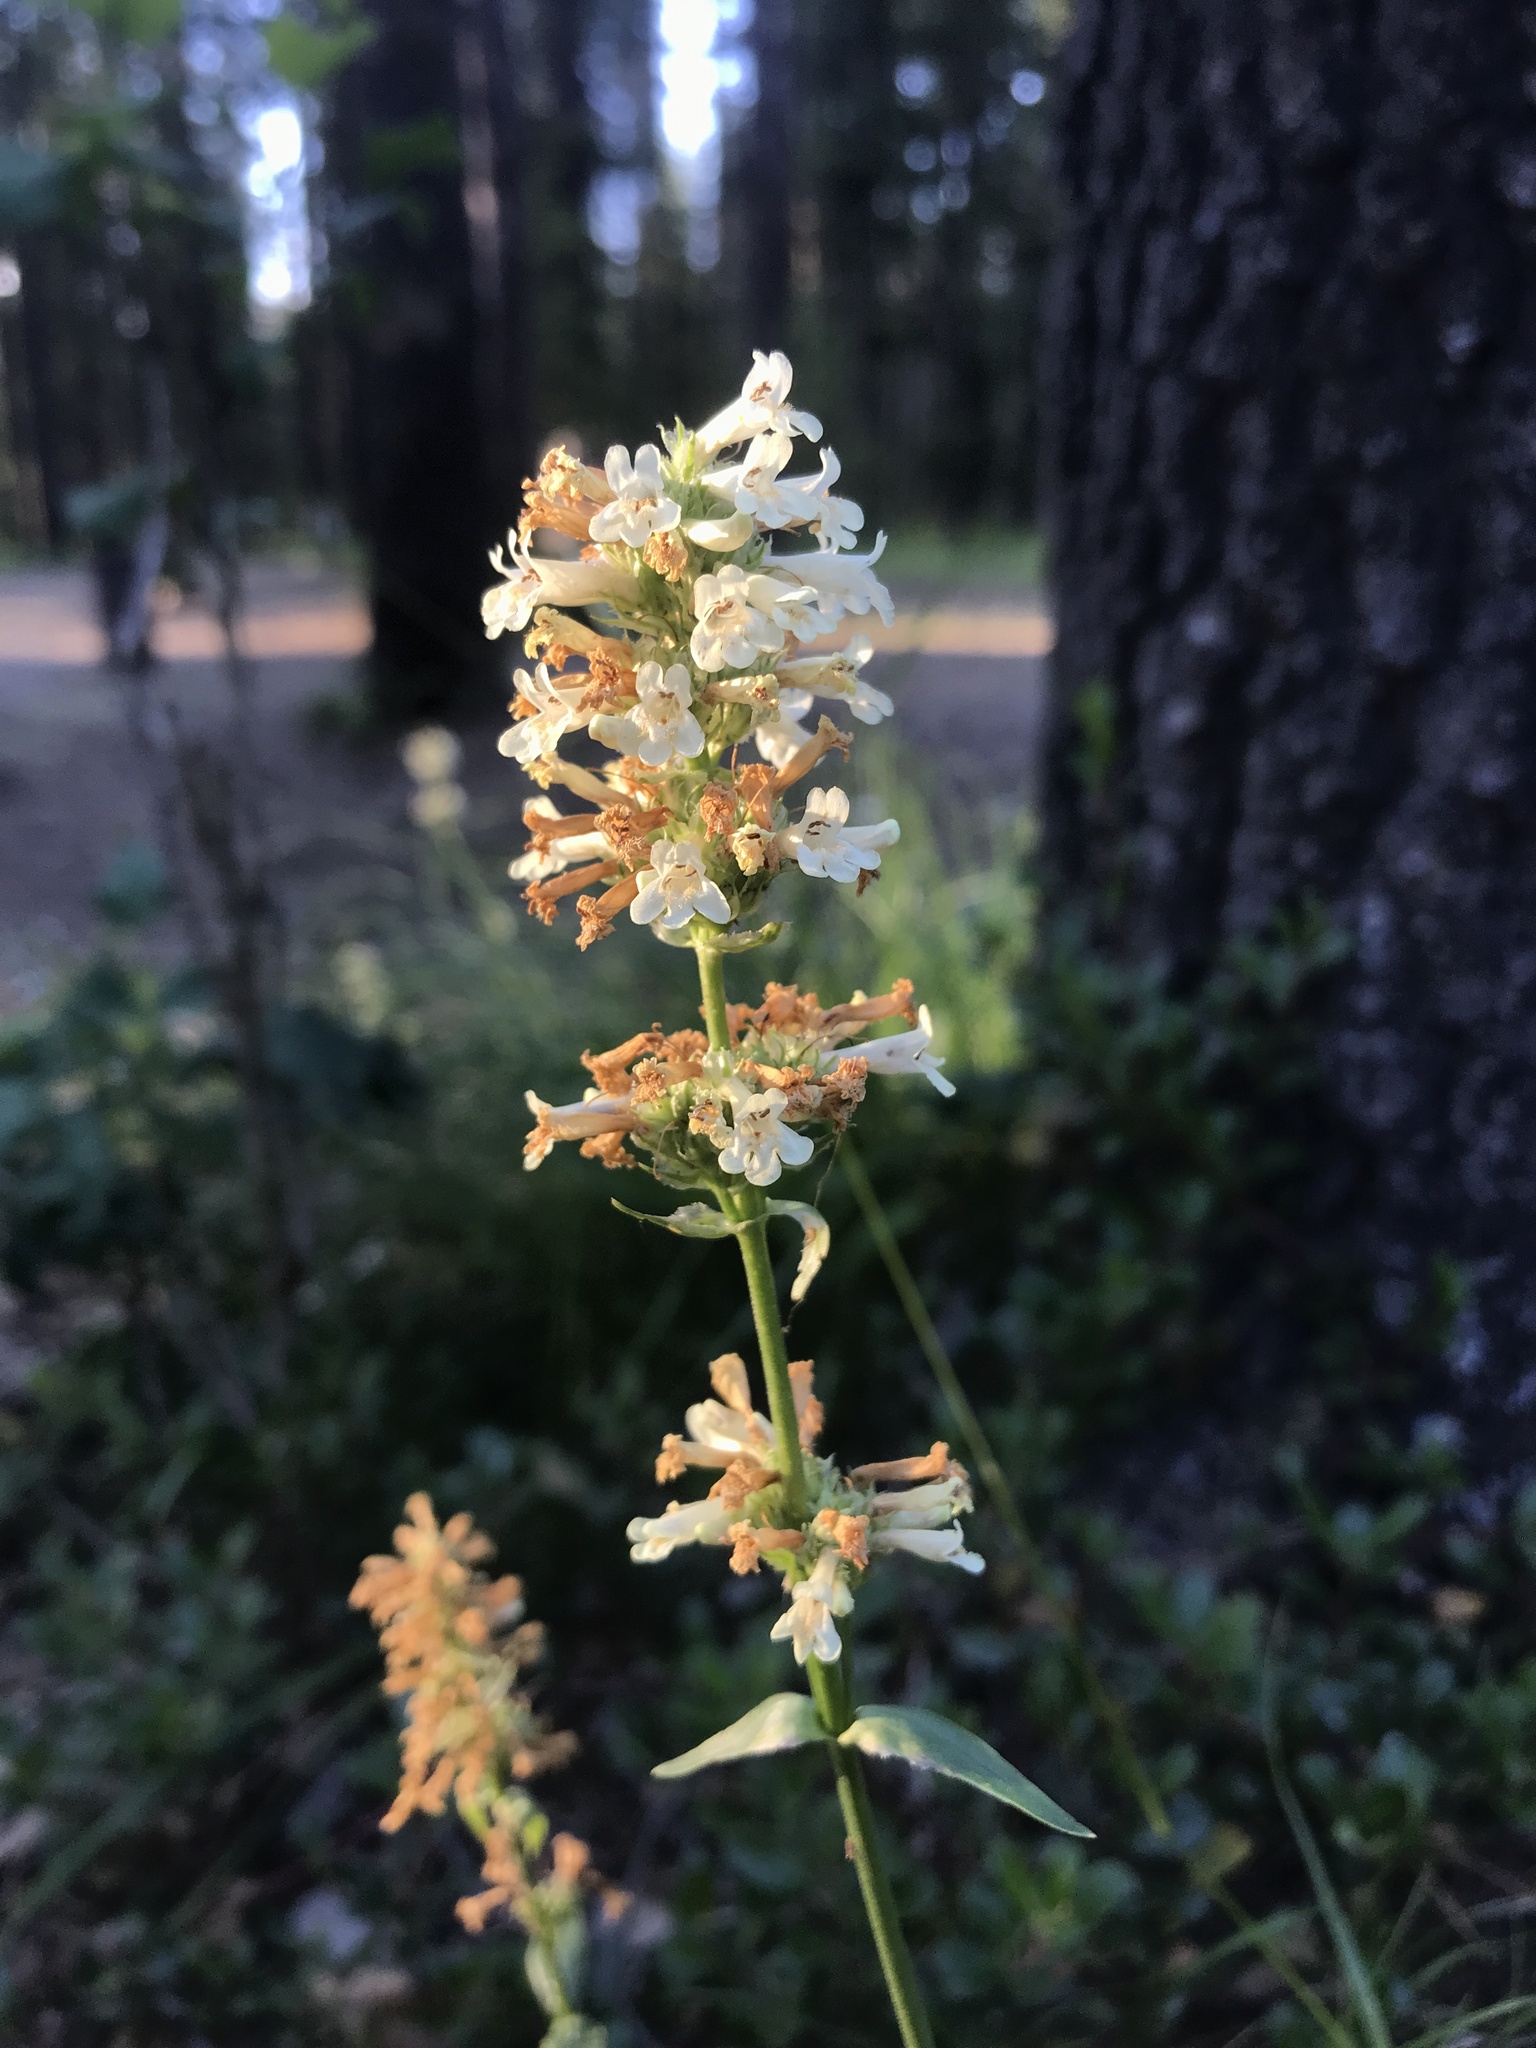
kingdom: Plantae
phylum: Tracheophyta
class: Magnoliopsida
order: Lamiales
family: Plantaginaceae
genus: Penstemon
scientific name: Penstemon confertus
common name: Lesser yellow beardtongue
